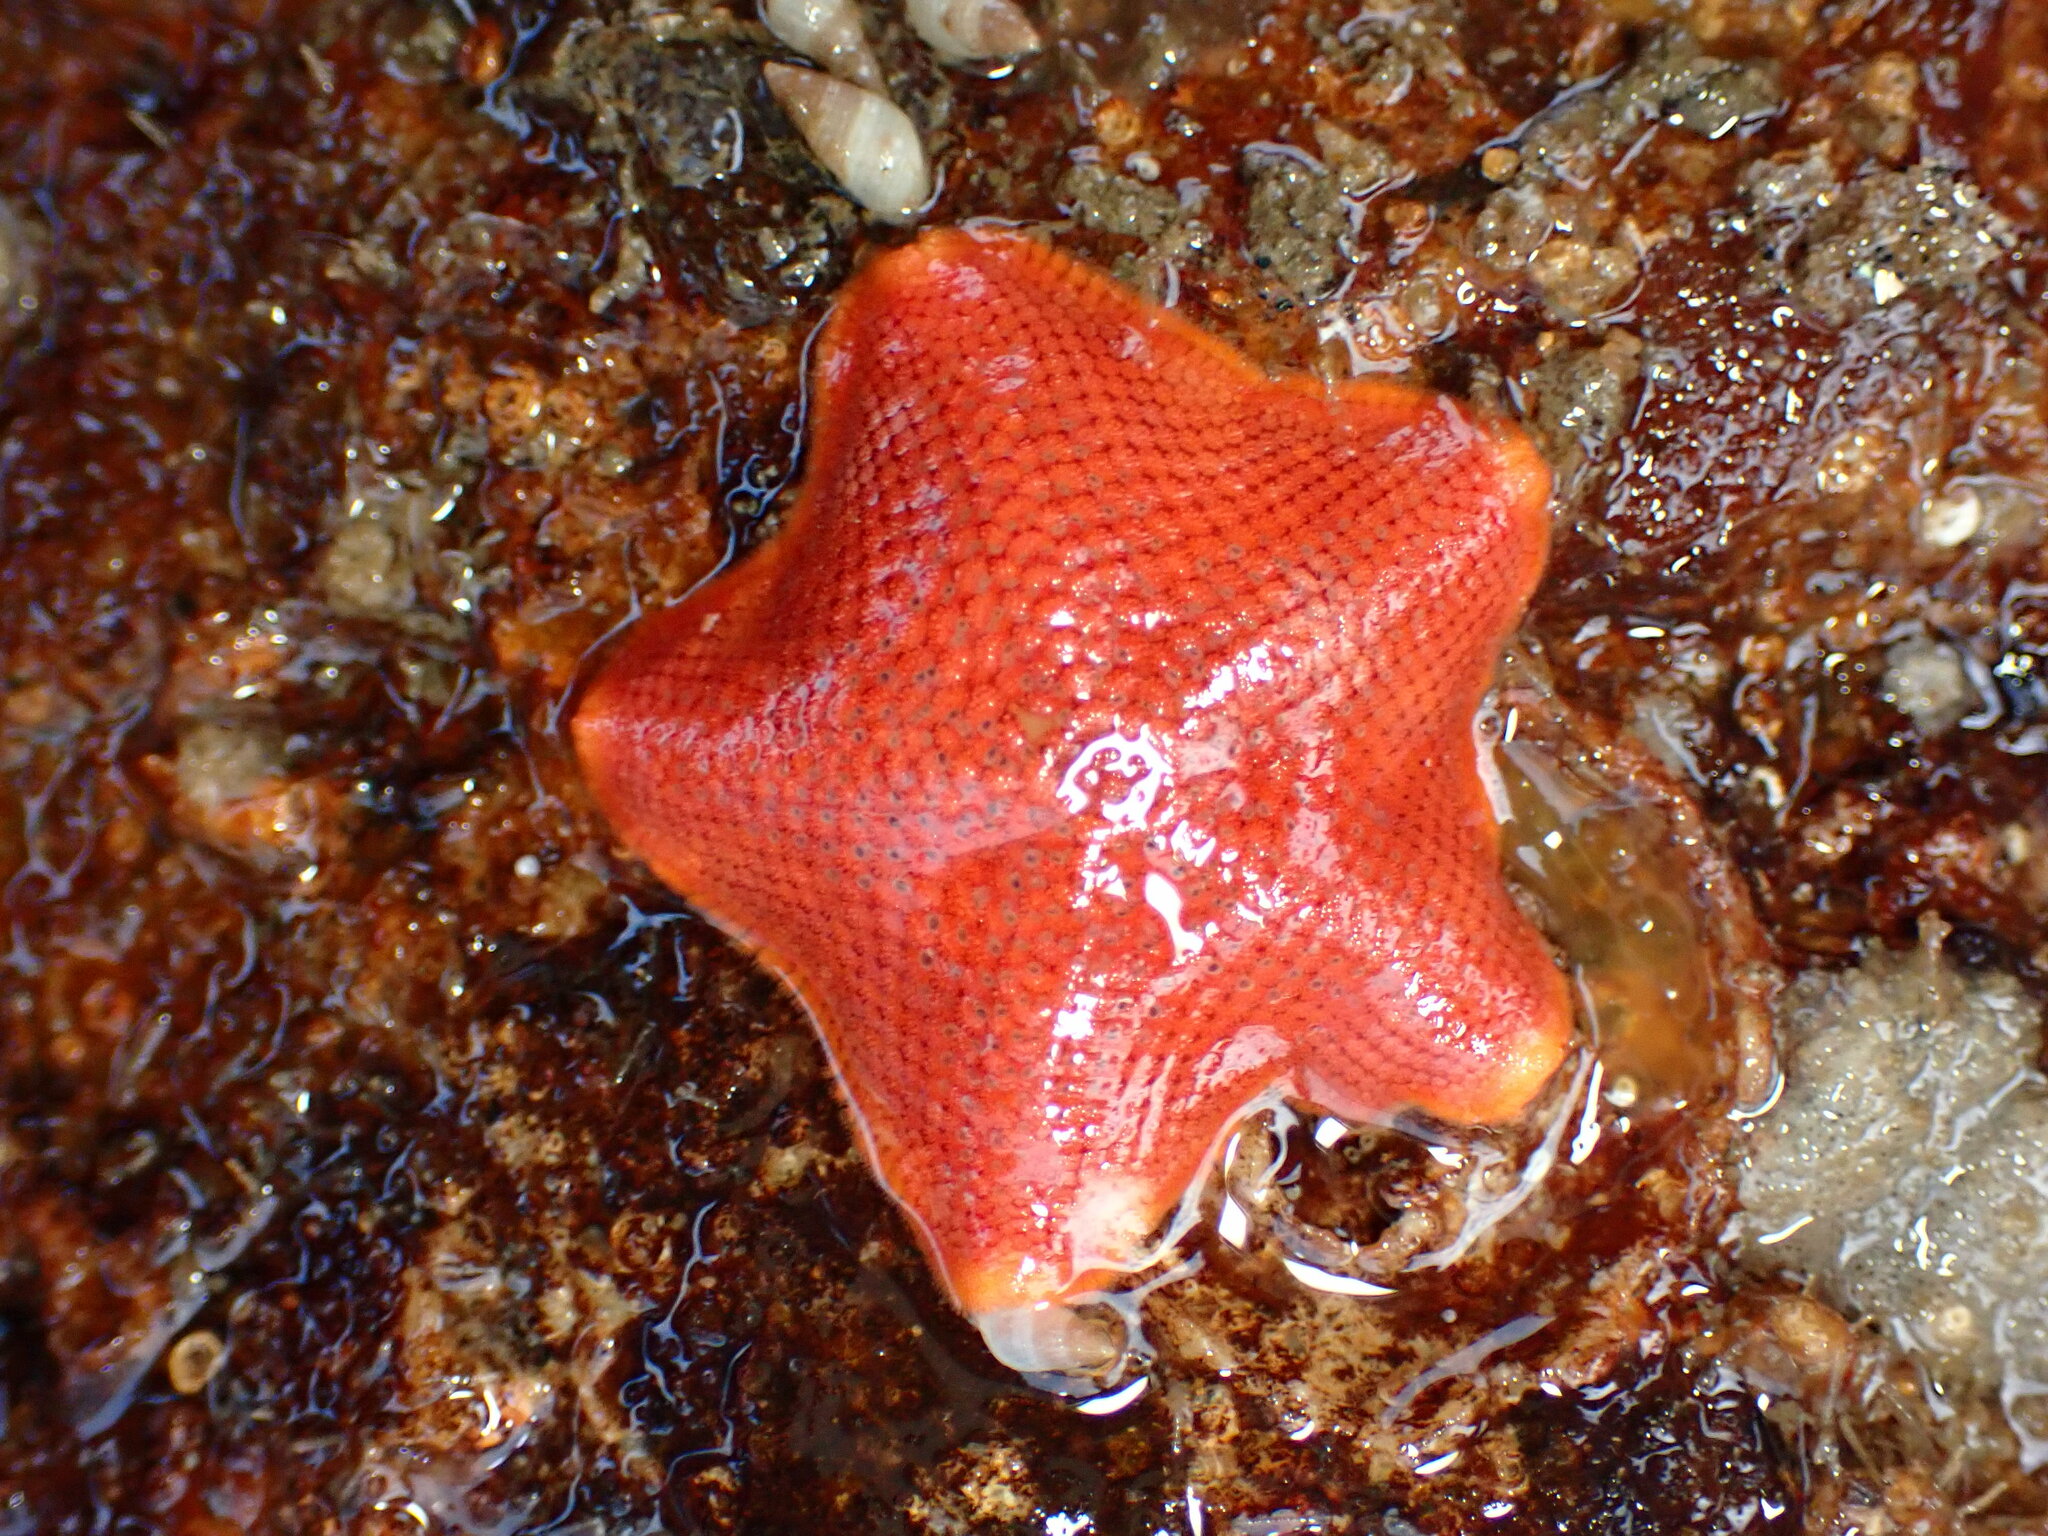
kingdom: Animalia
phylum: Echinodermata
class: Asteroidea
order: Valvatida
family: Asterinidae
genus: Patiria
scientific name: Patiria miniata
